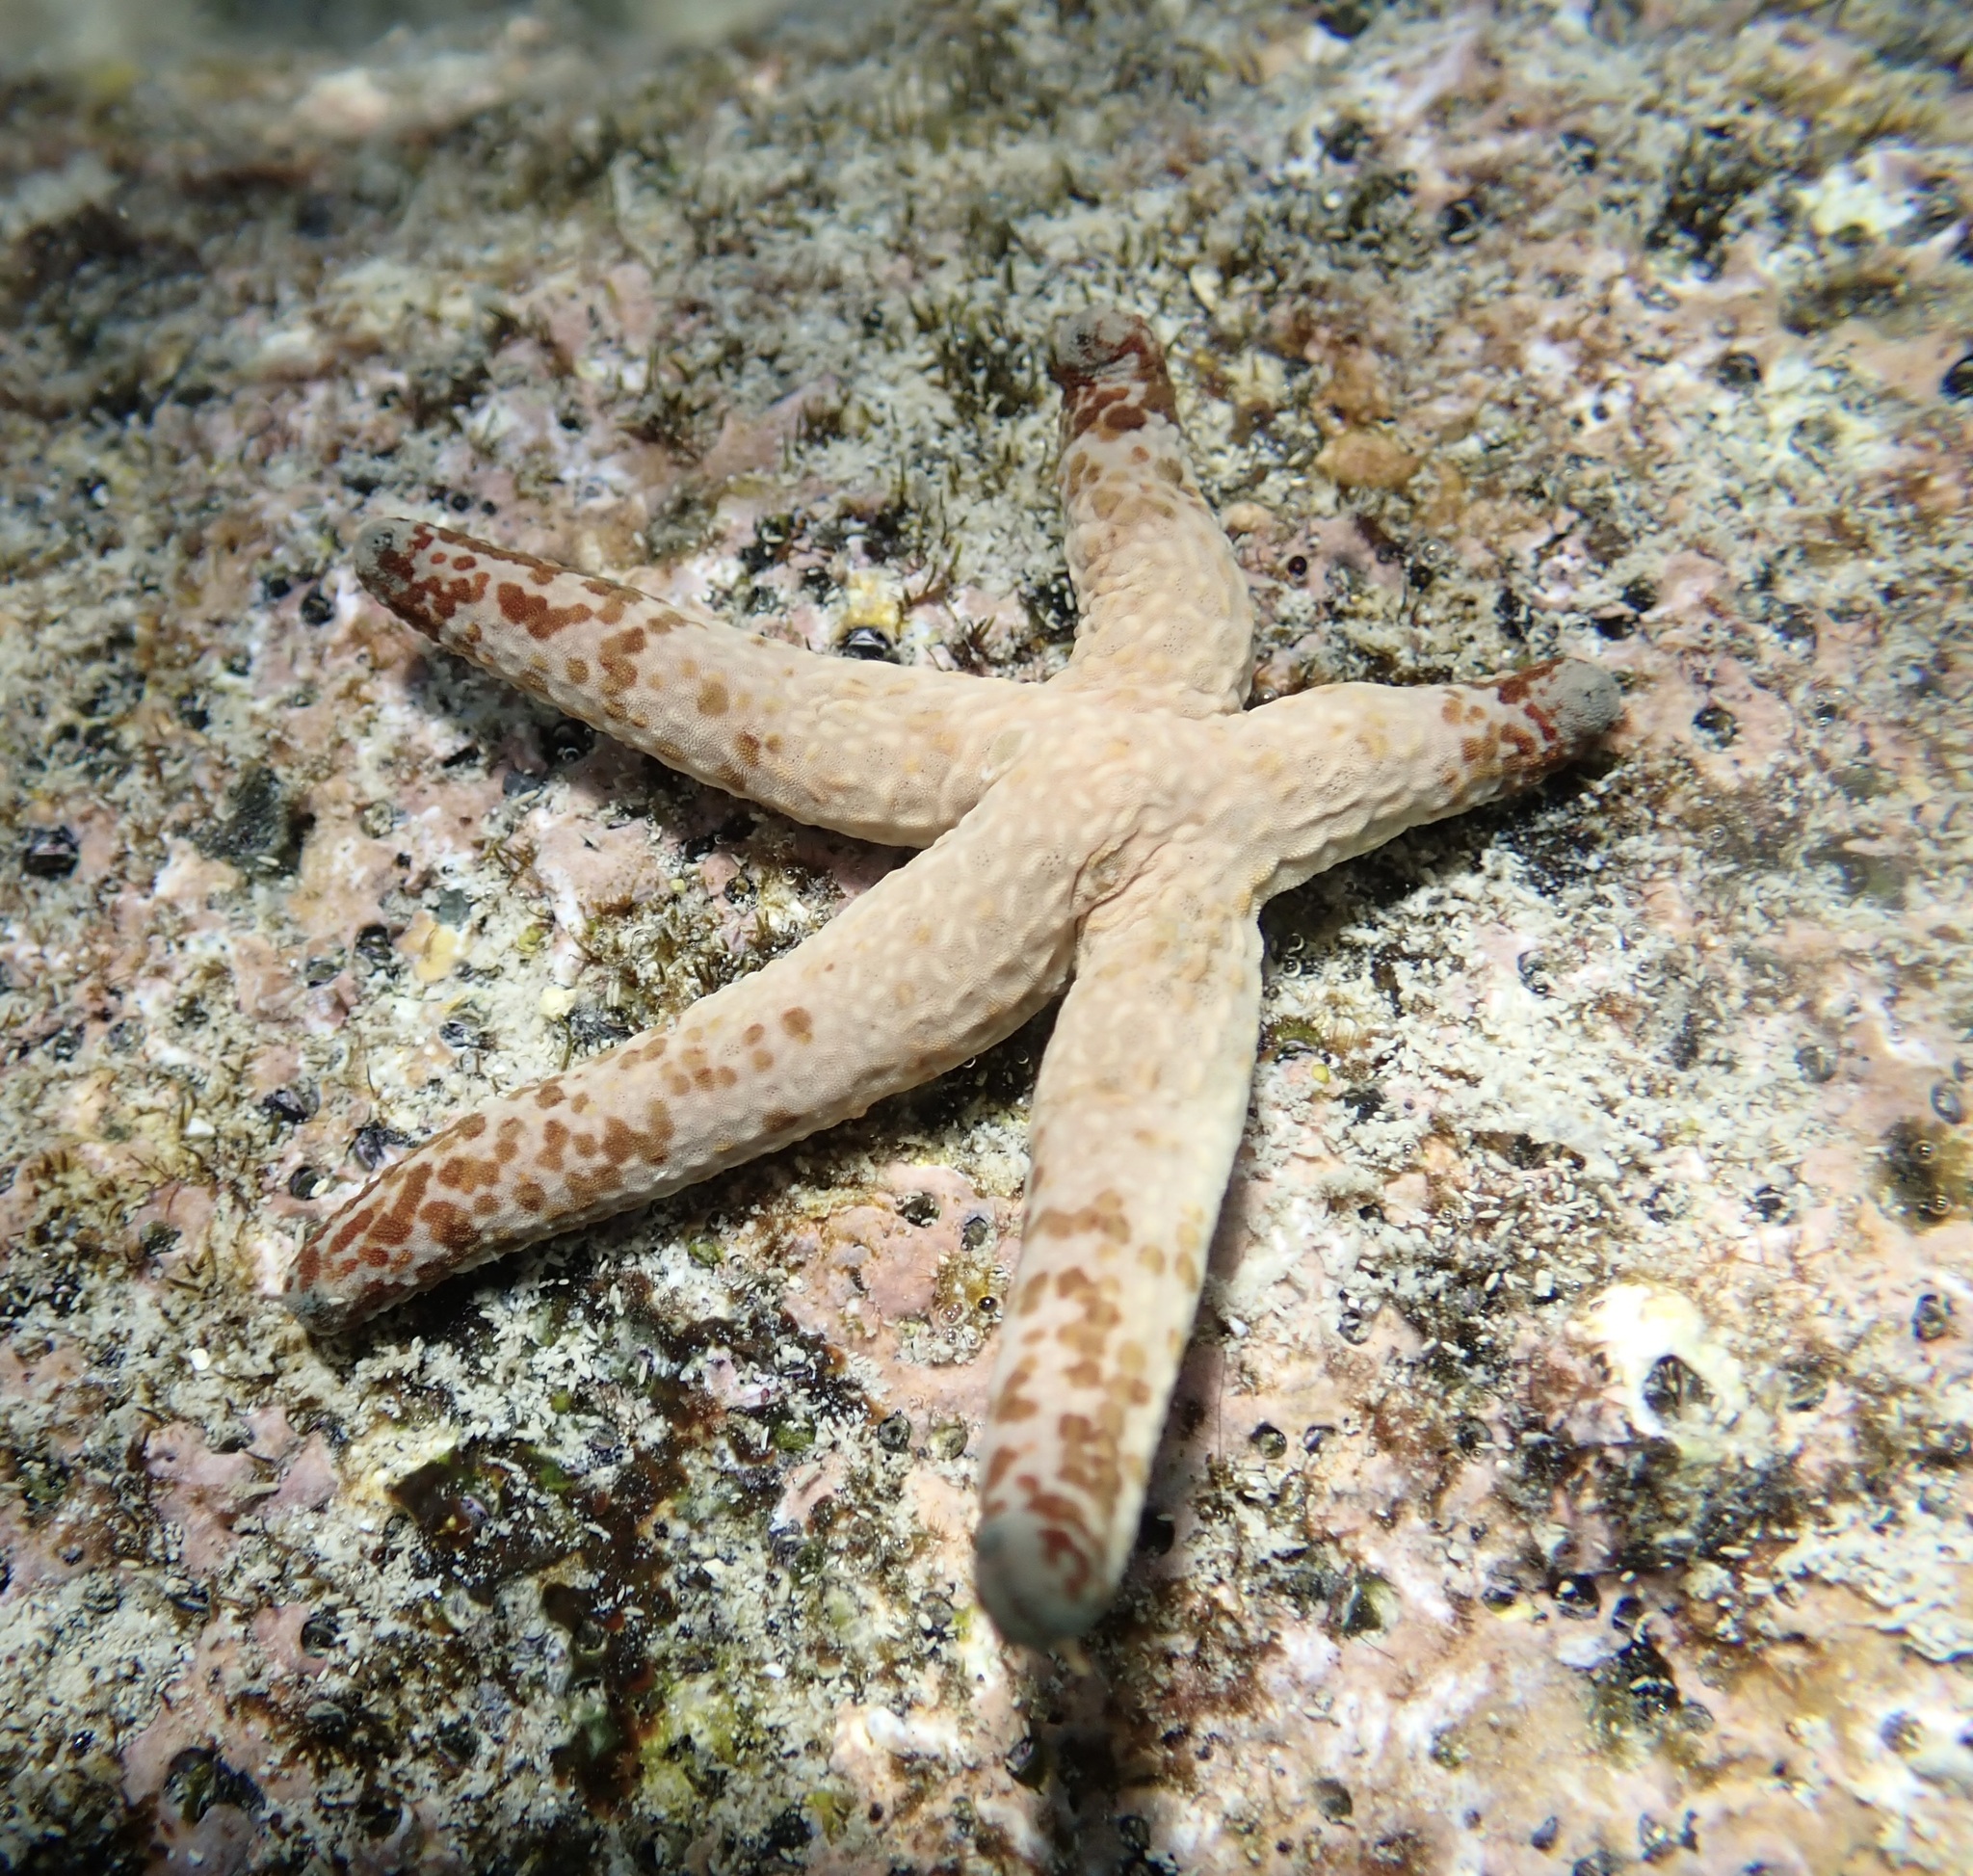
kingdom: Animalia
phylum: Echinodermata
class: Asteroidea
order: Valvatida
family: Ophidiasteridae
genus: Linckia
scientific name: Linckia multifora
